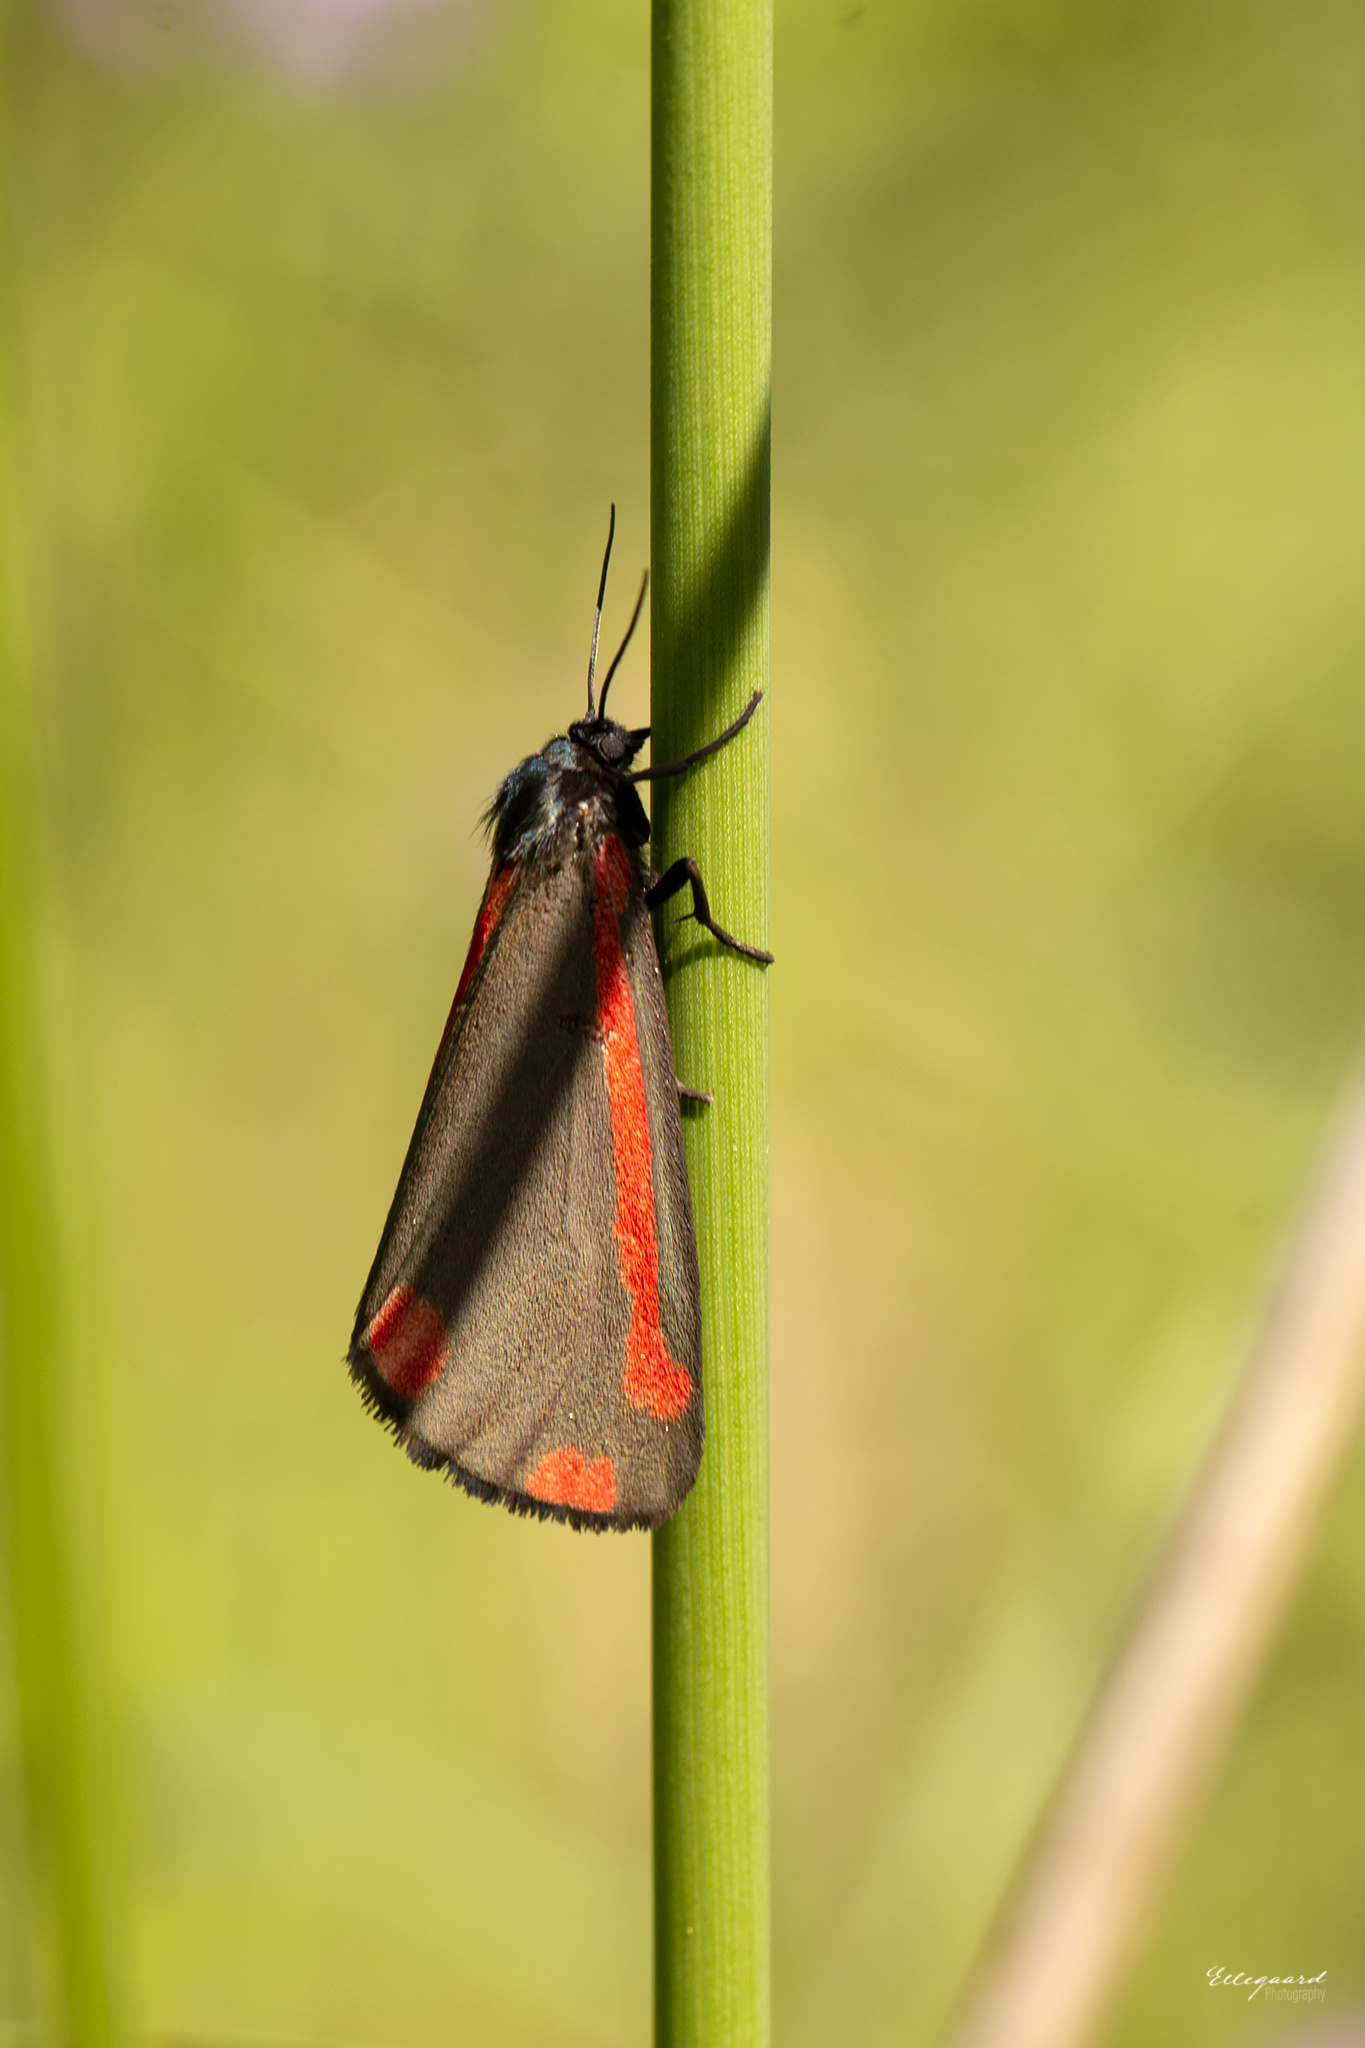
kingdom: Animalia
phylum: Arthropoda
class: Insecta
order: Lepidoptera
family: Erebidae
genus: Tyria
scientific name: Tyria jacobaeae
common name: Cinnabar
